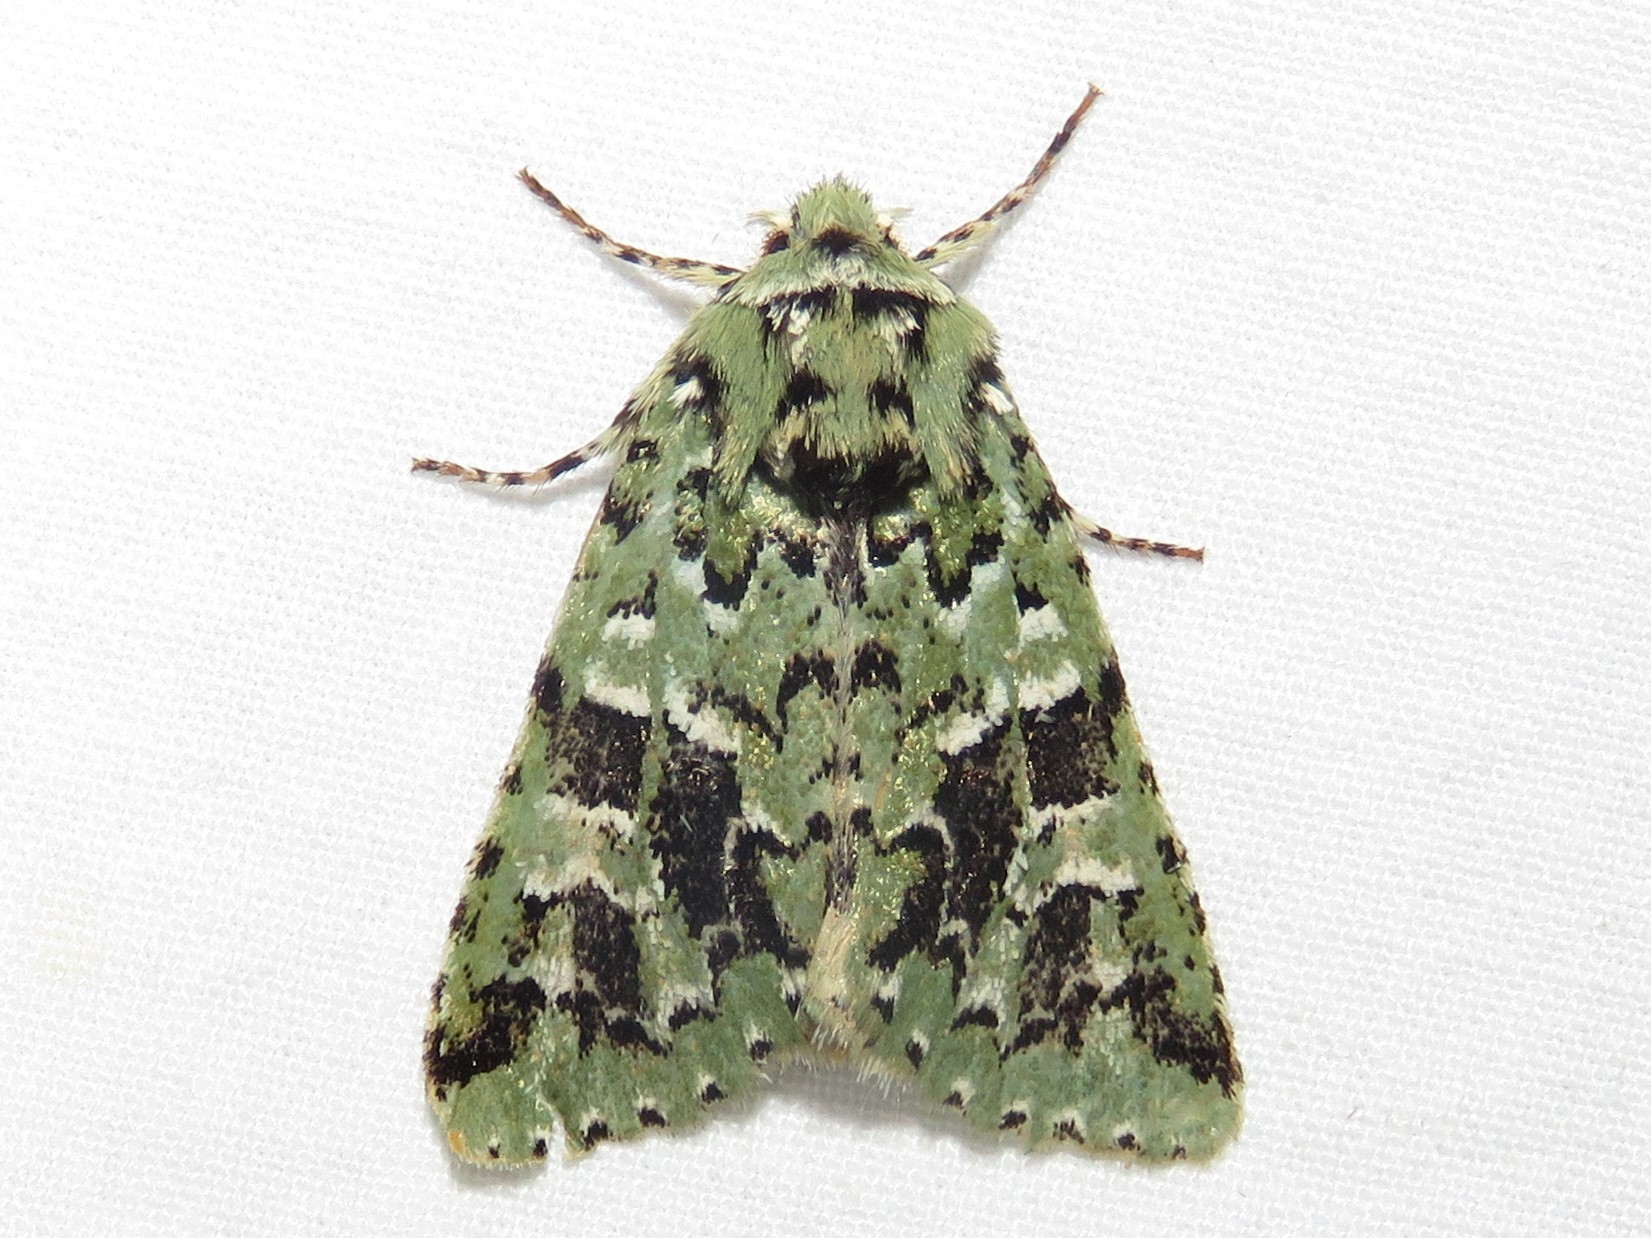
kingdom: Animalia
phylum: Arthropoda
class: Insecta
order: Lepidoptera
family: Noctuidae
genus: Feralia
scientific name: Feralia comstocki
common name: Comstock's sallow
